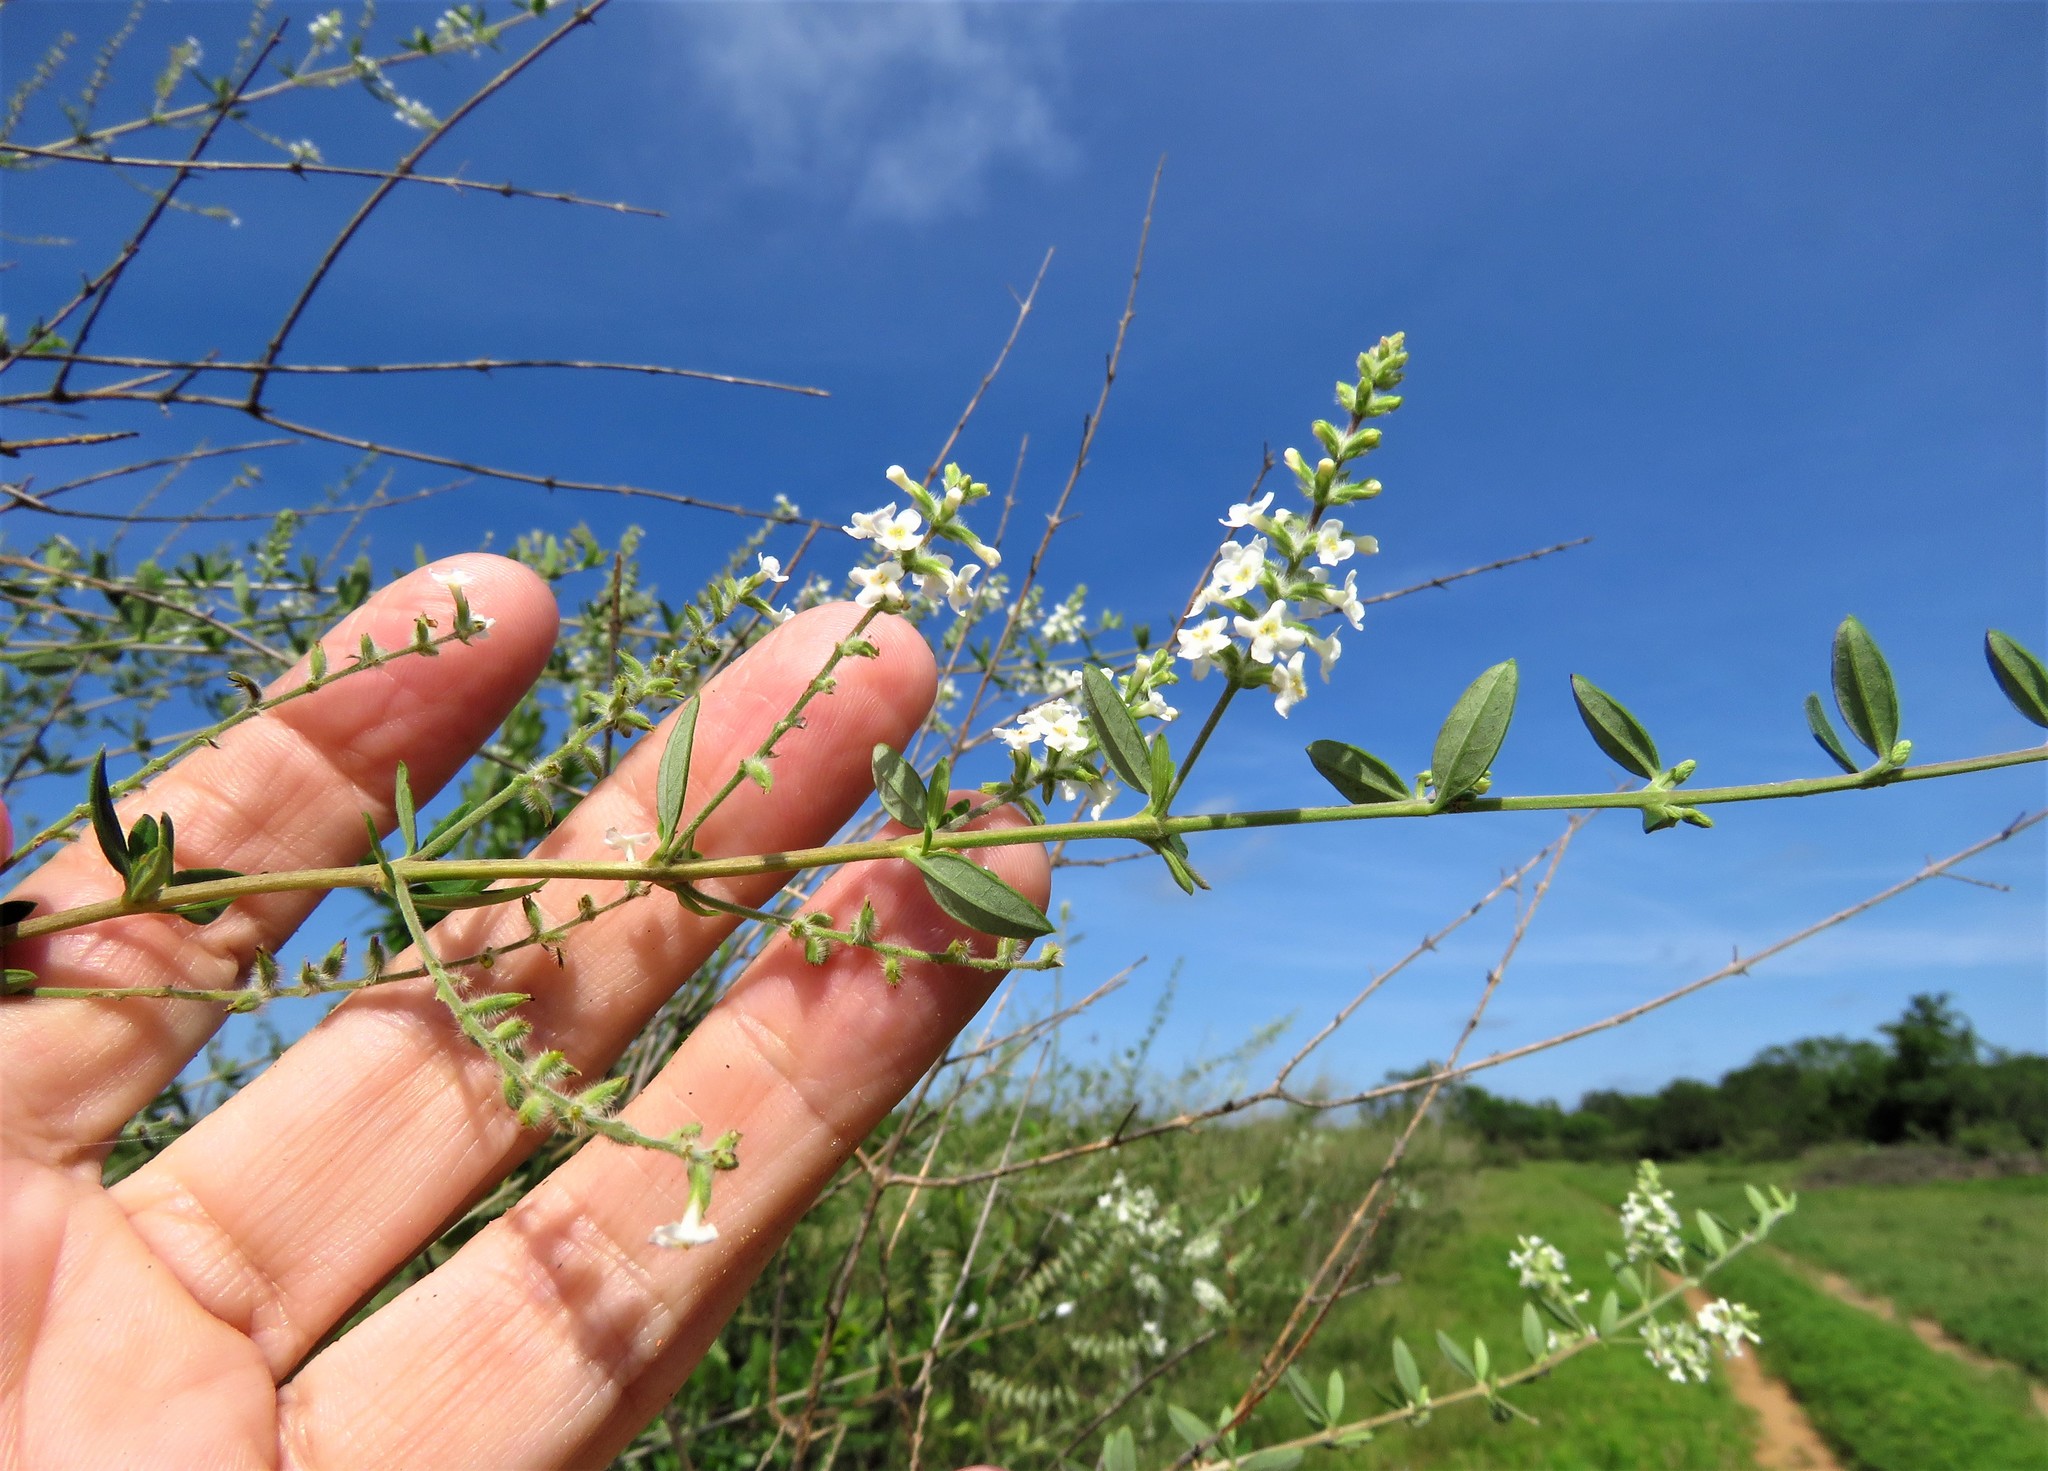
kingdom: Plantae
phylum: Tracheophyta
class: Magnoliopsida
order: Lamiales
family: Verbenaceae
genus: Aloysia
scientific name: Aloysia gratissima
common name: Common bee-brush
